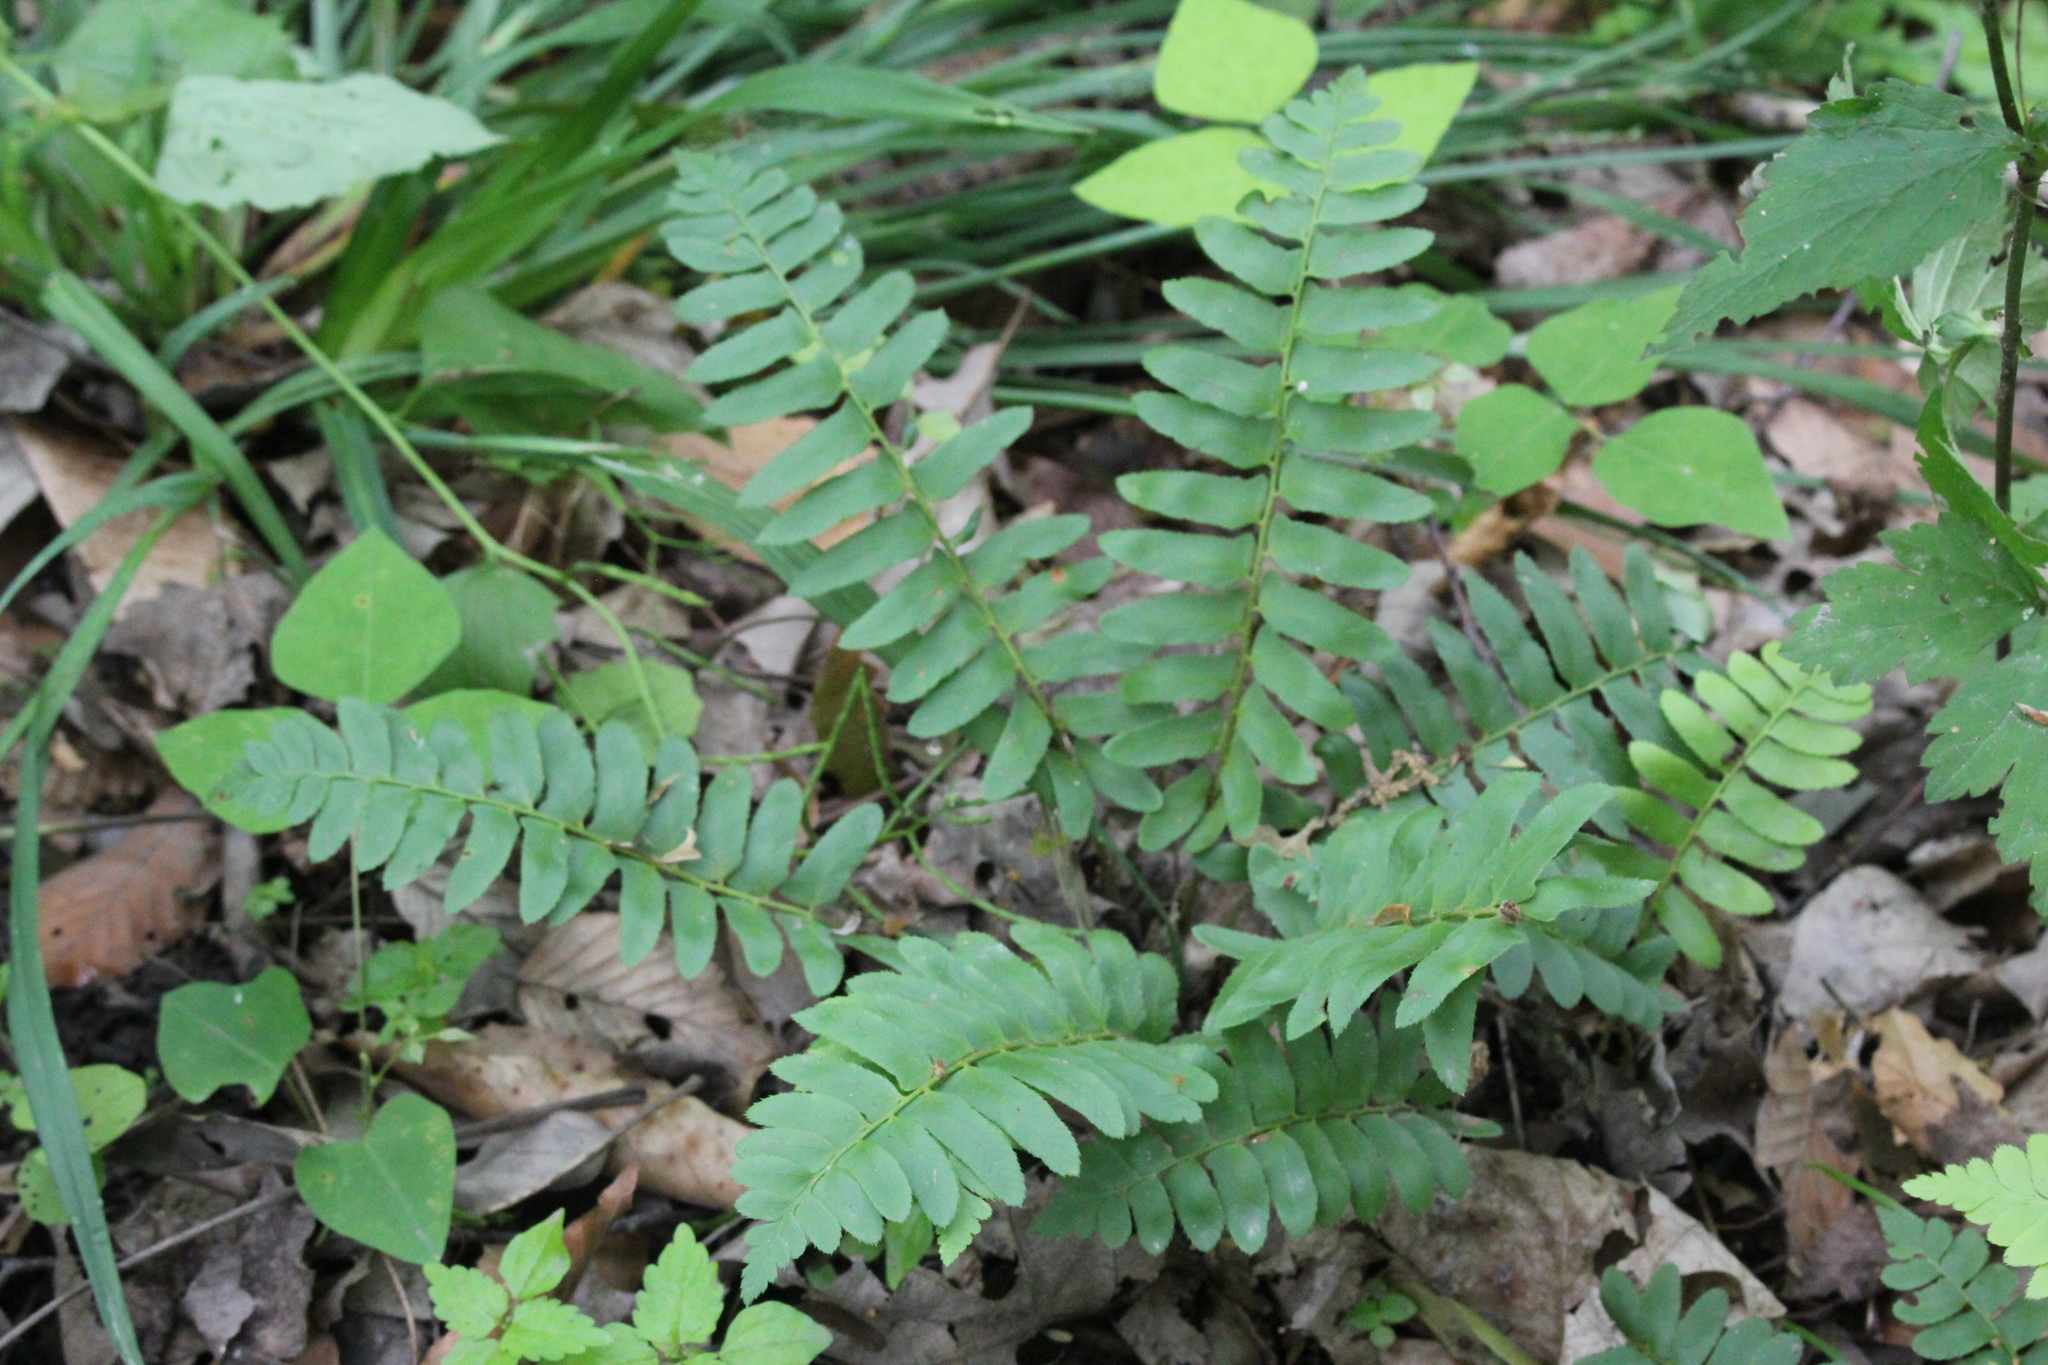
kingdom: Plantae
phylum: Tracheophyta
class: Polypodiopsida
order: Polypodiales
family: Dryopteridaceae
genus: Polystichum
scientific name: Polystichum acrostichoides
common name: Christmas fern
